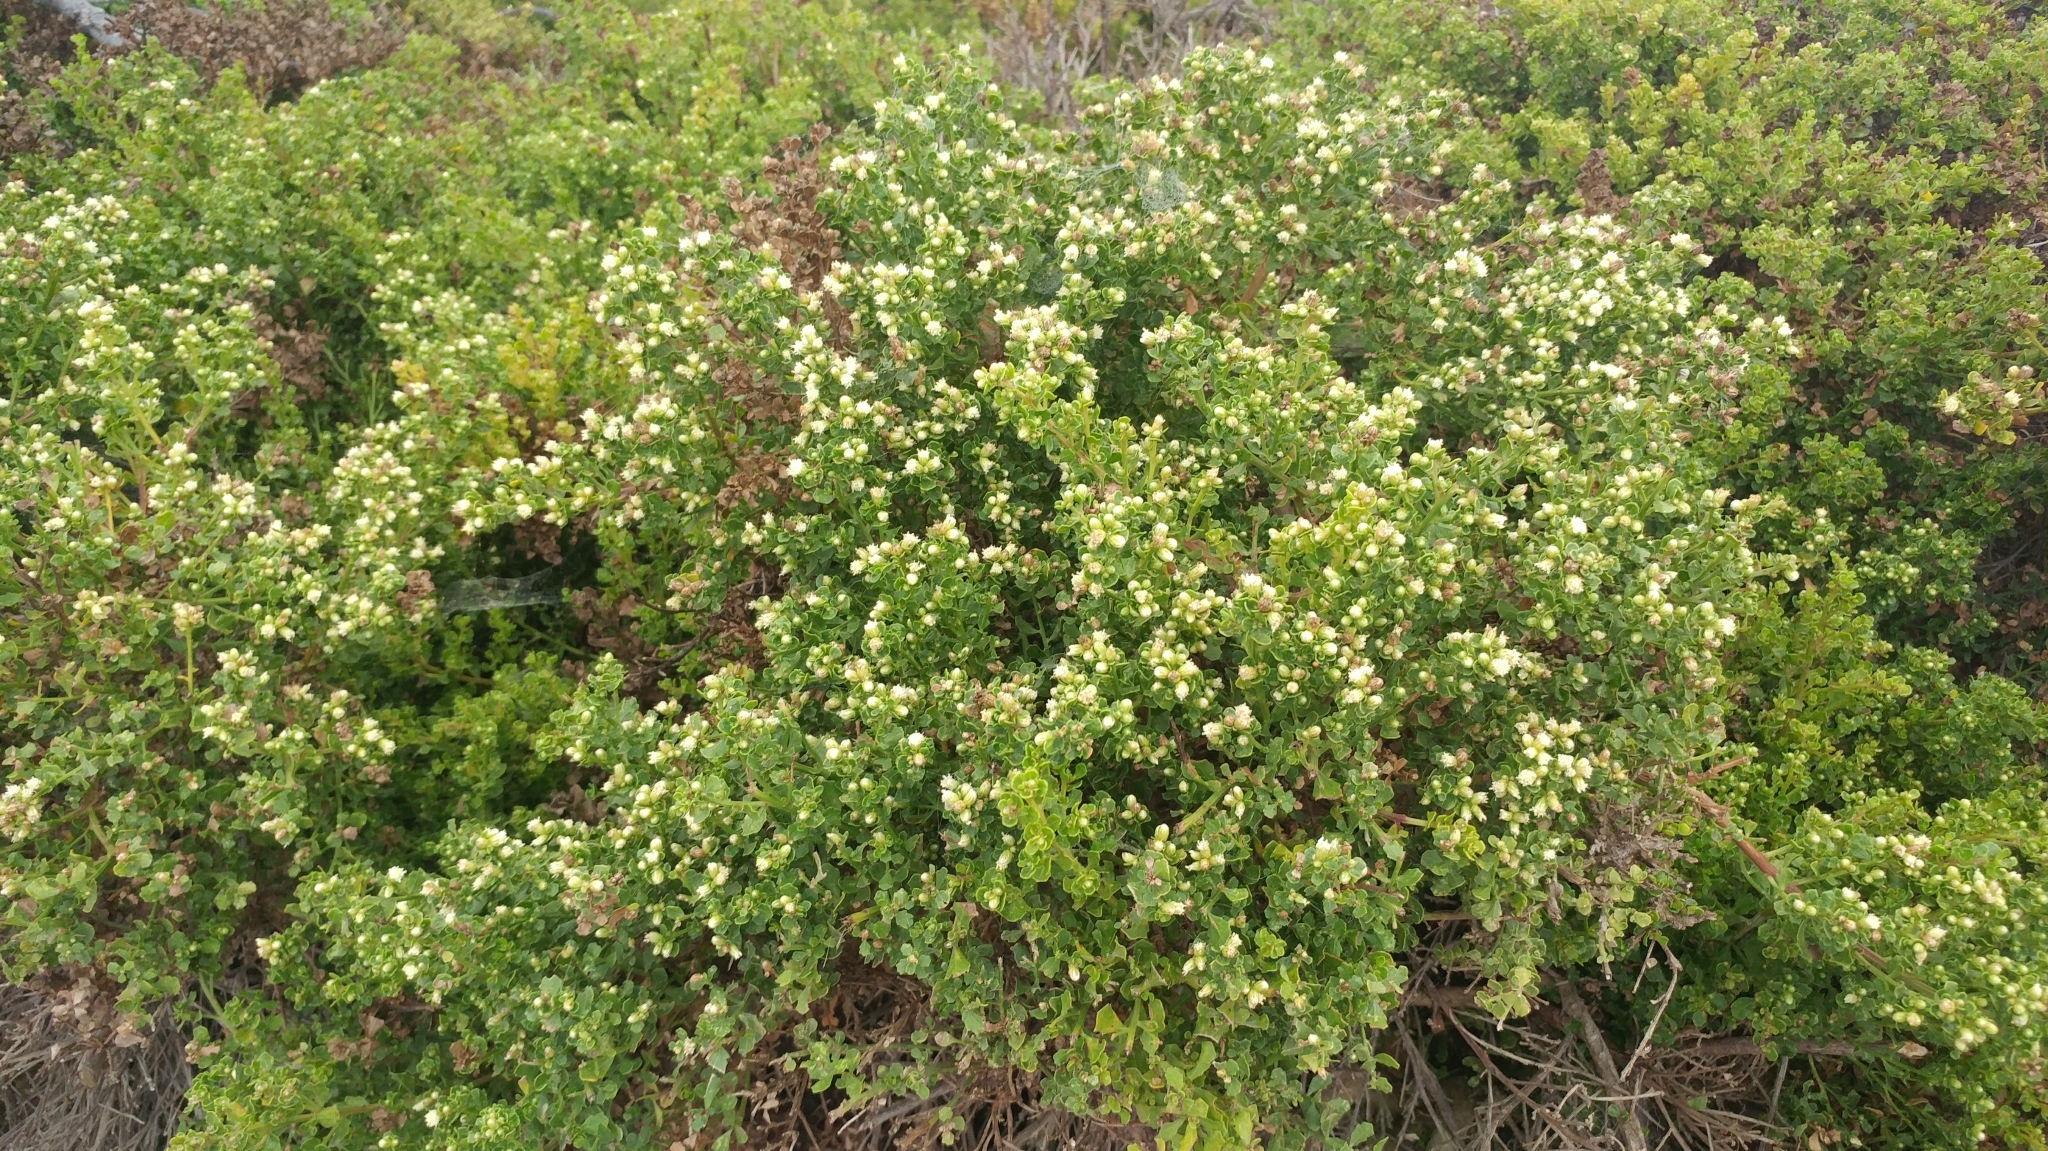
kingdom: Plantae
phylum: Tracheophyta
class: Magnoliopsida
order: Asterales
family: Asteraceae
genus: Baccharis
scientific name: Baccharis pilularis
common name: Coyotebrush
